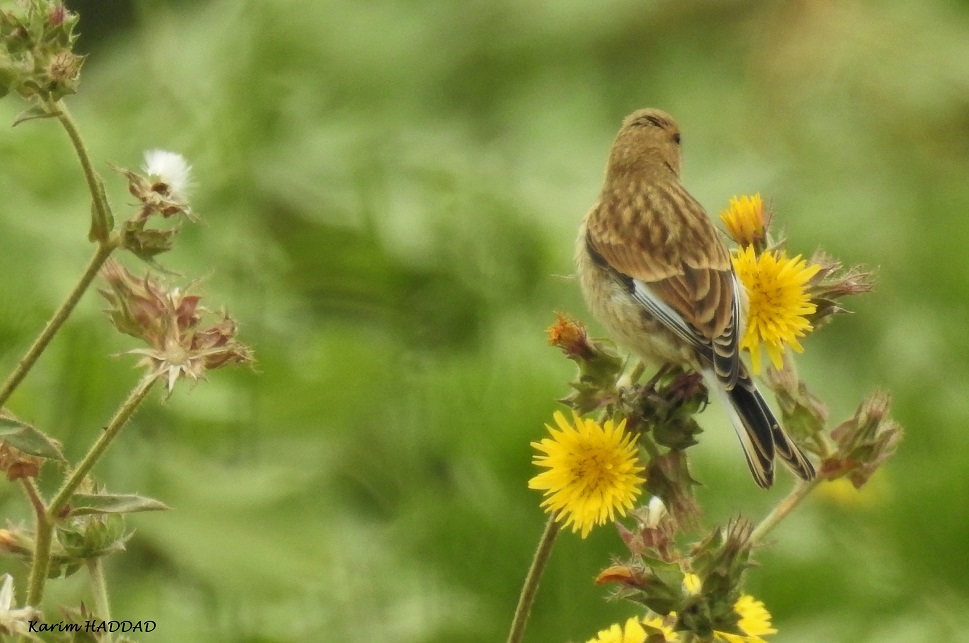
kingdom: Animalia
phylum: Chordata
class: Aves
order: Passeriformes
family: Fringillidae
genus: Linaria
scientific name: Linaria cannabina
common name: Common linnet
